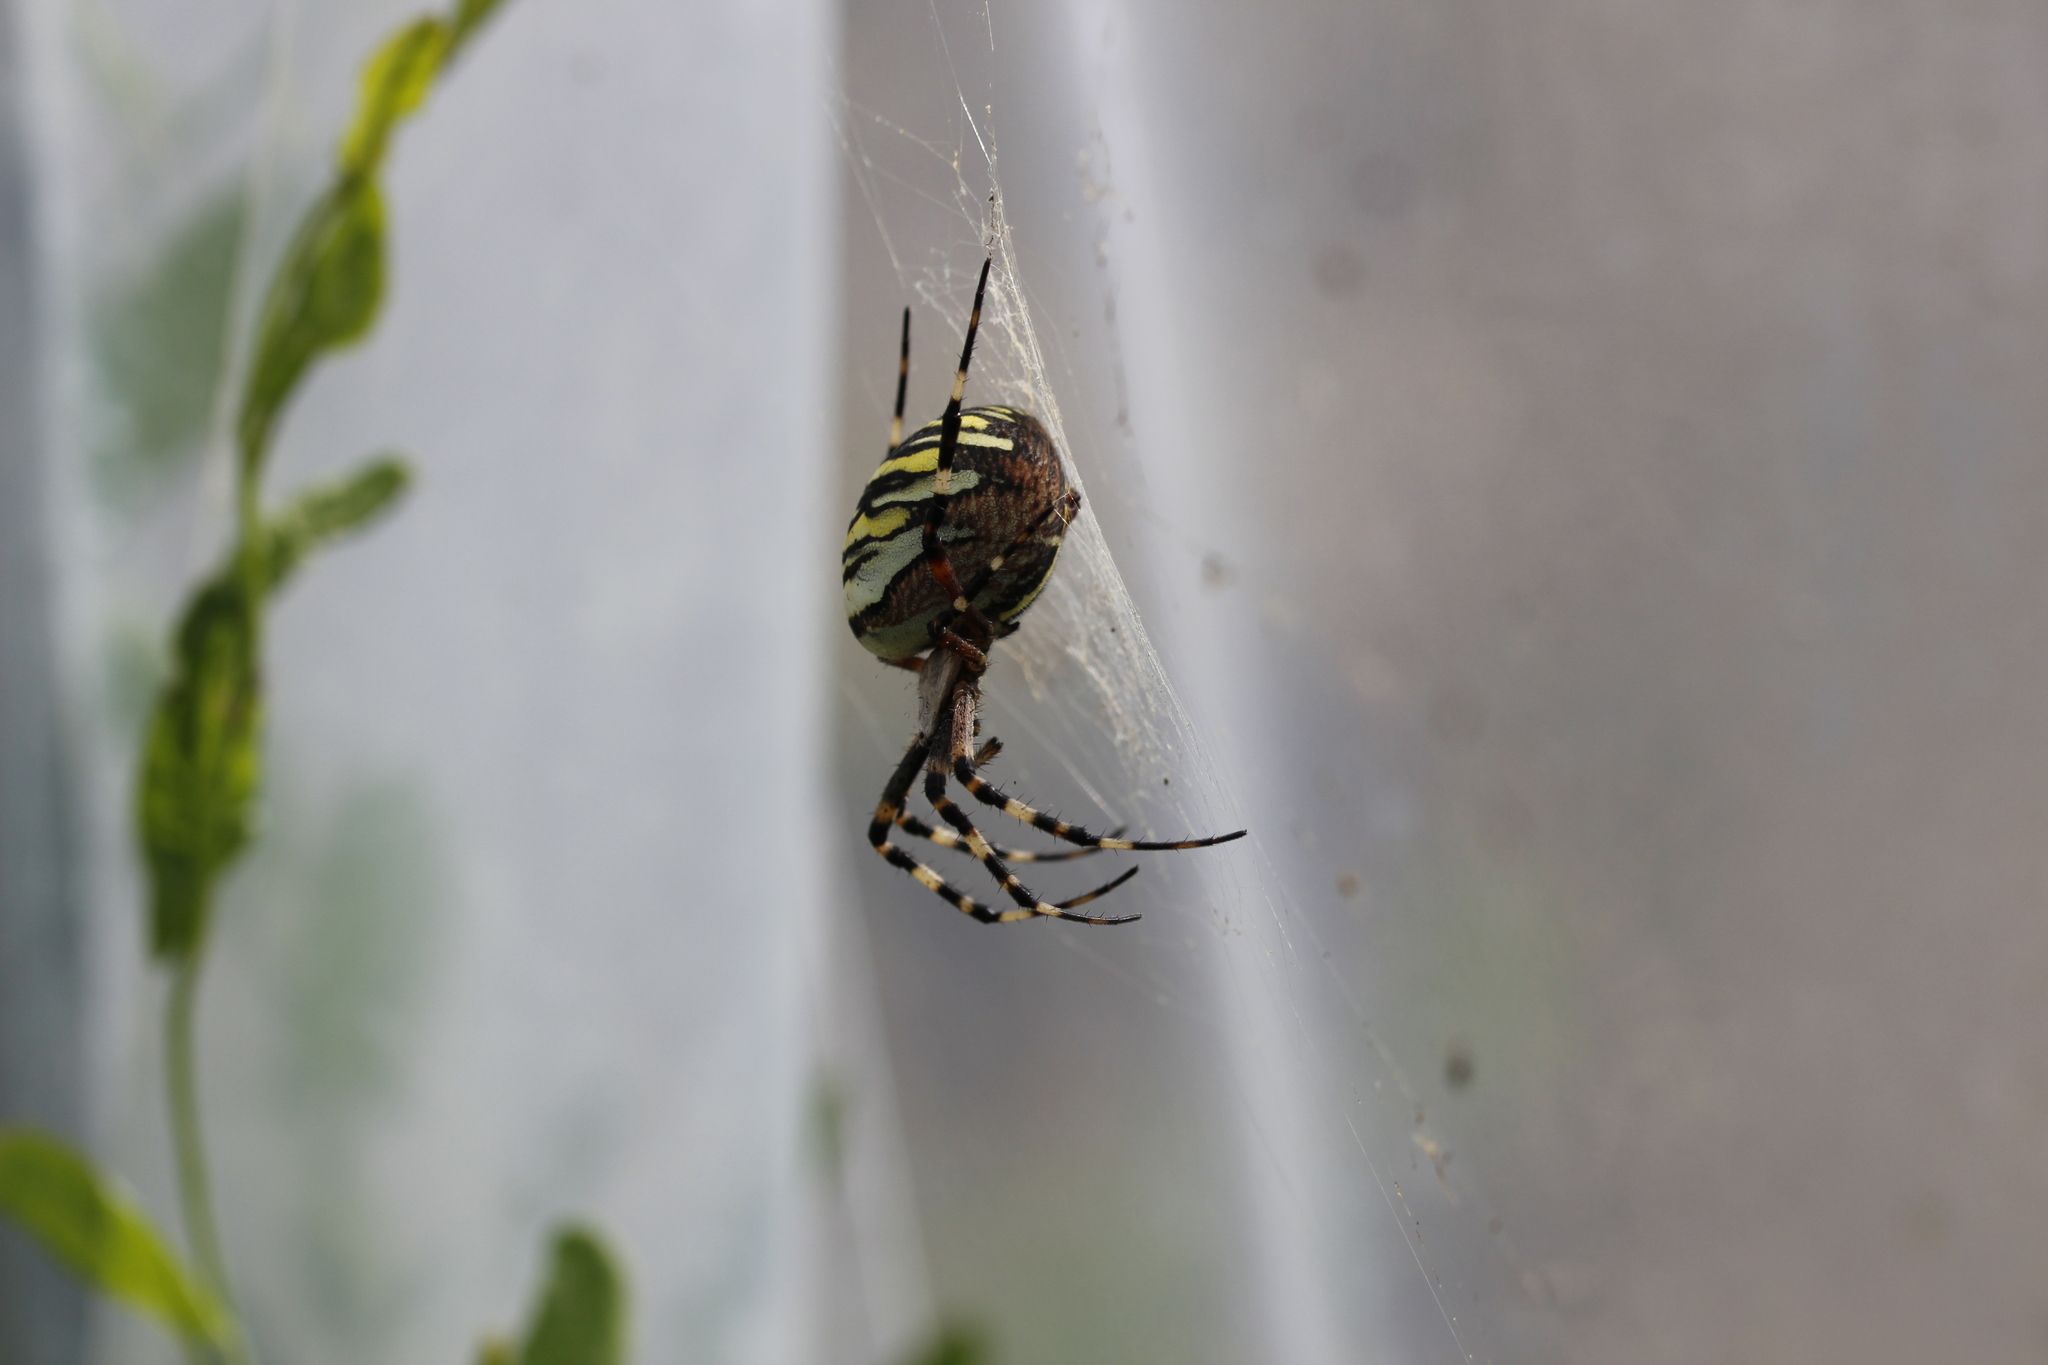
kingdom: Animalia
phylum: Arthropoda
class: Arachnida
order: Araneae
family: Araneidae
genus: Argiope
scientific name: Argiope bruennichi
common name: Wasp spider
